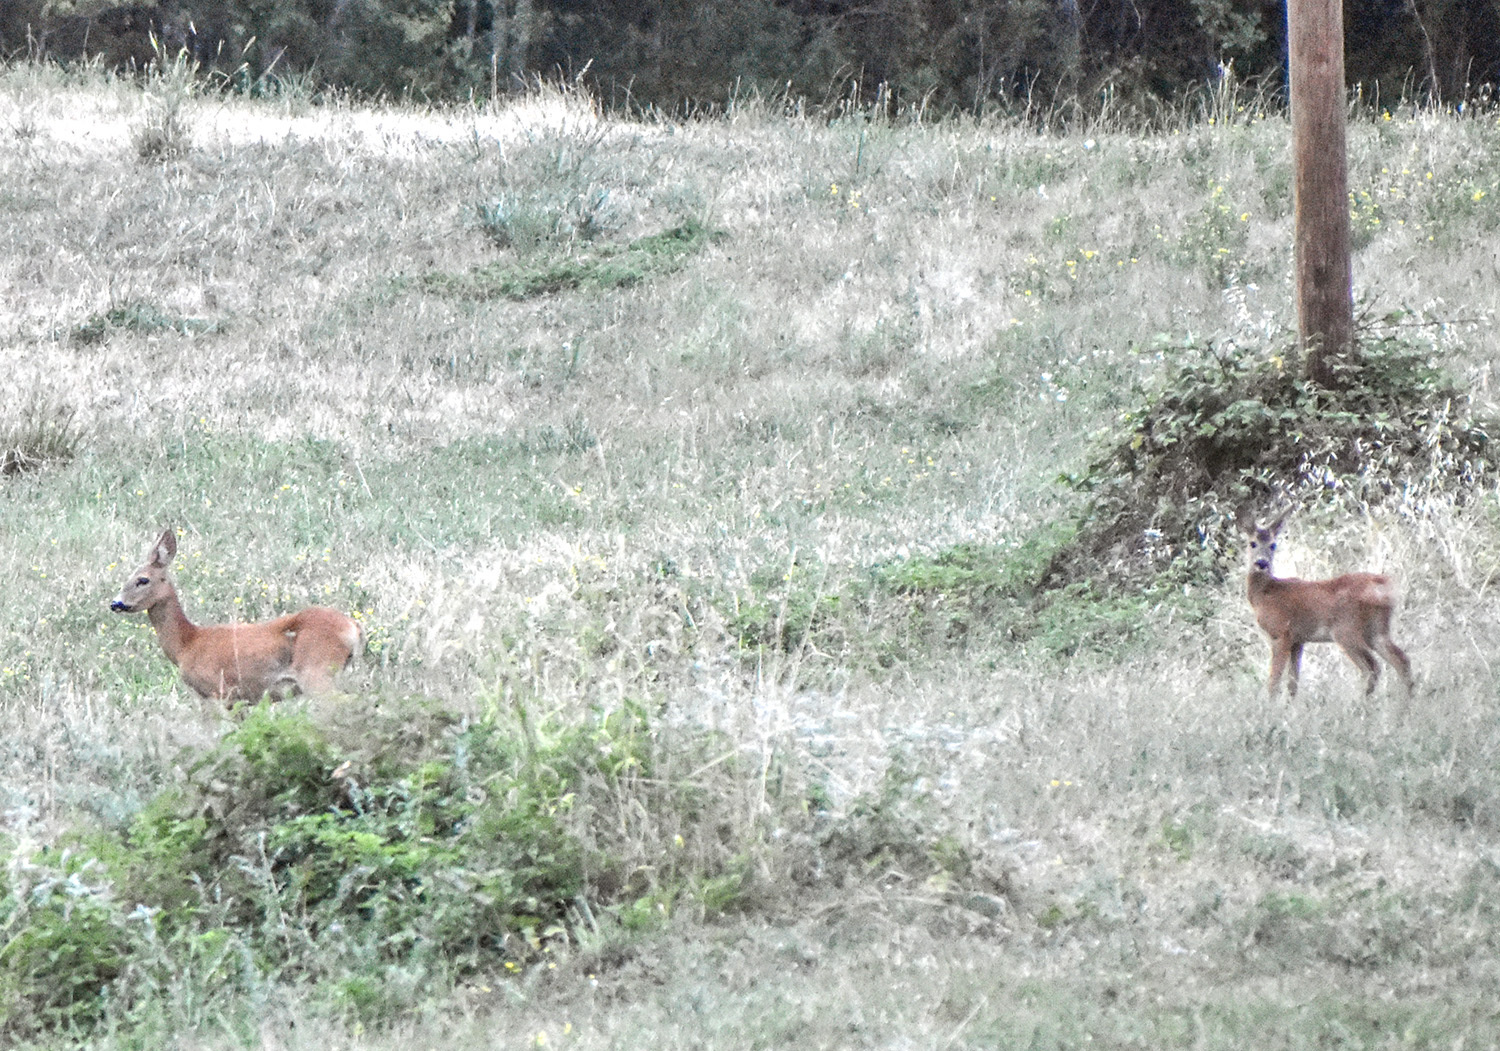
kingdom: Animalia
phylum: Chordata
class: Mammalia
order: Artiodactyla
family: Cervidae
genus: Capreolus
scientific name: Capreolus capreolus
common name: Western roe deer
